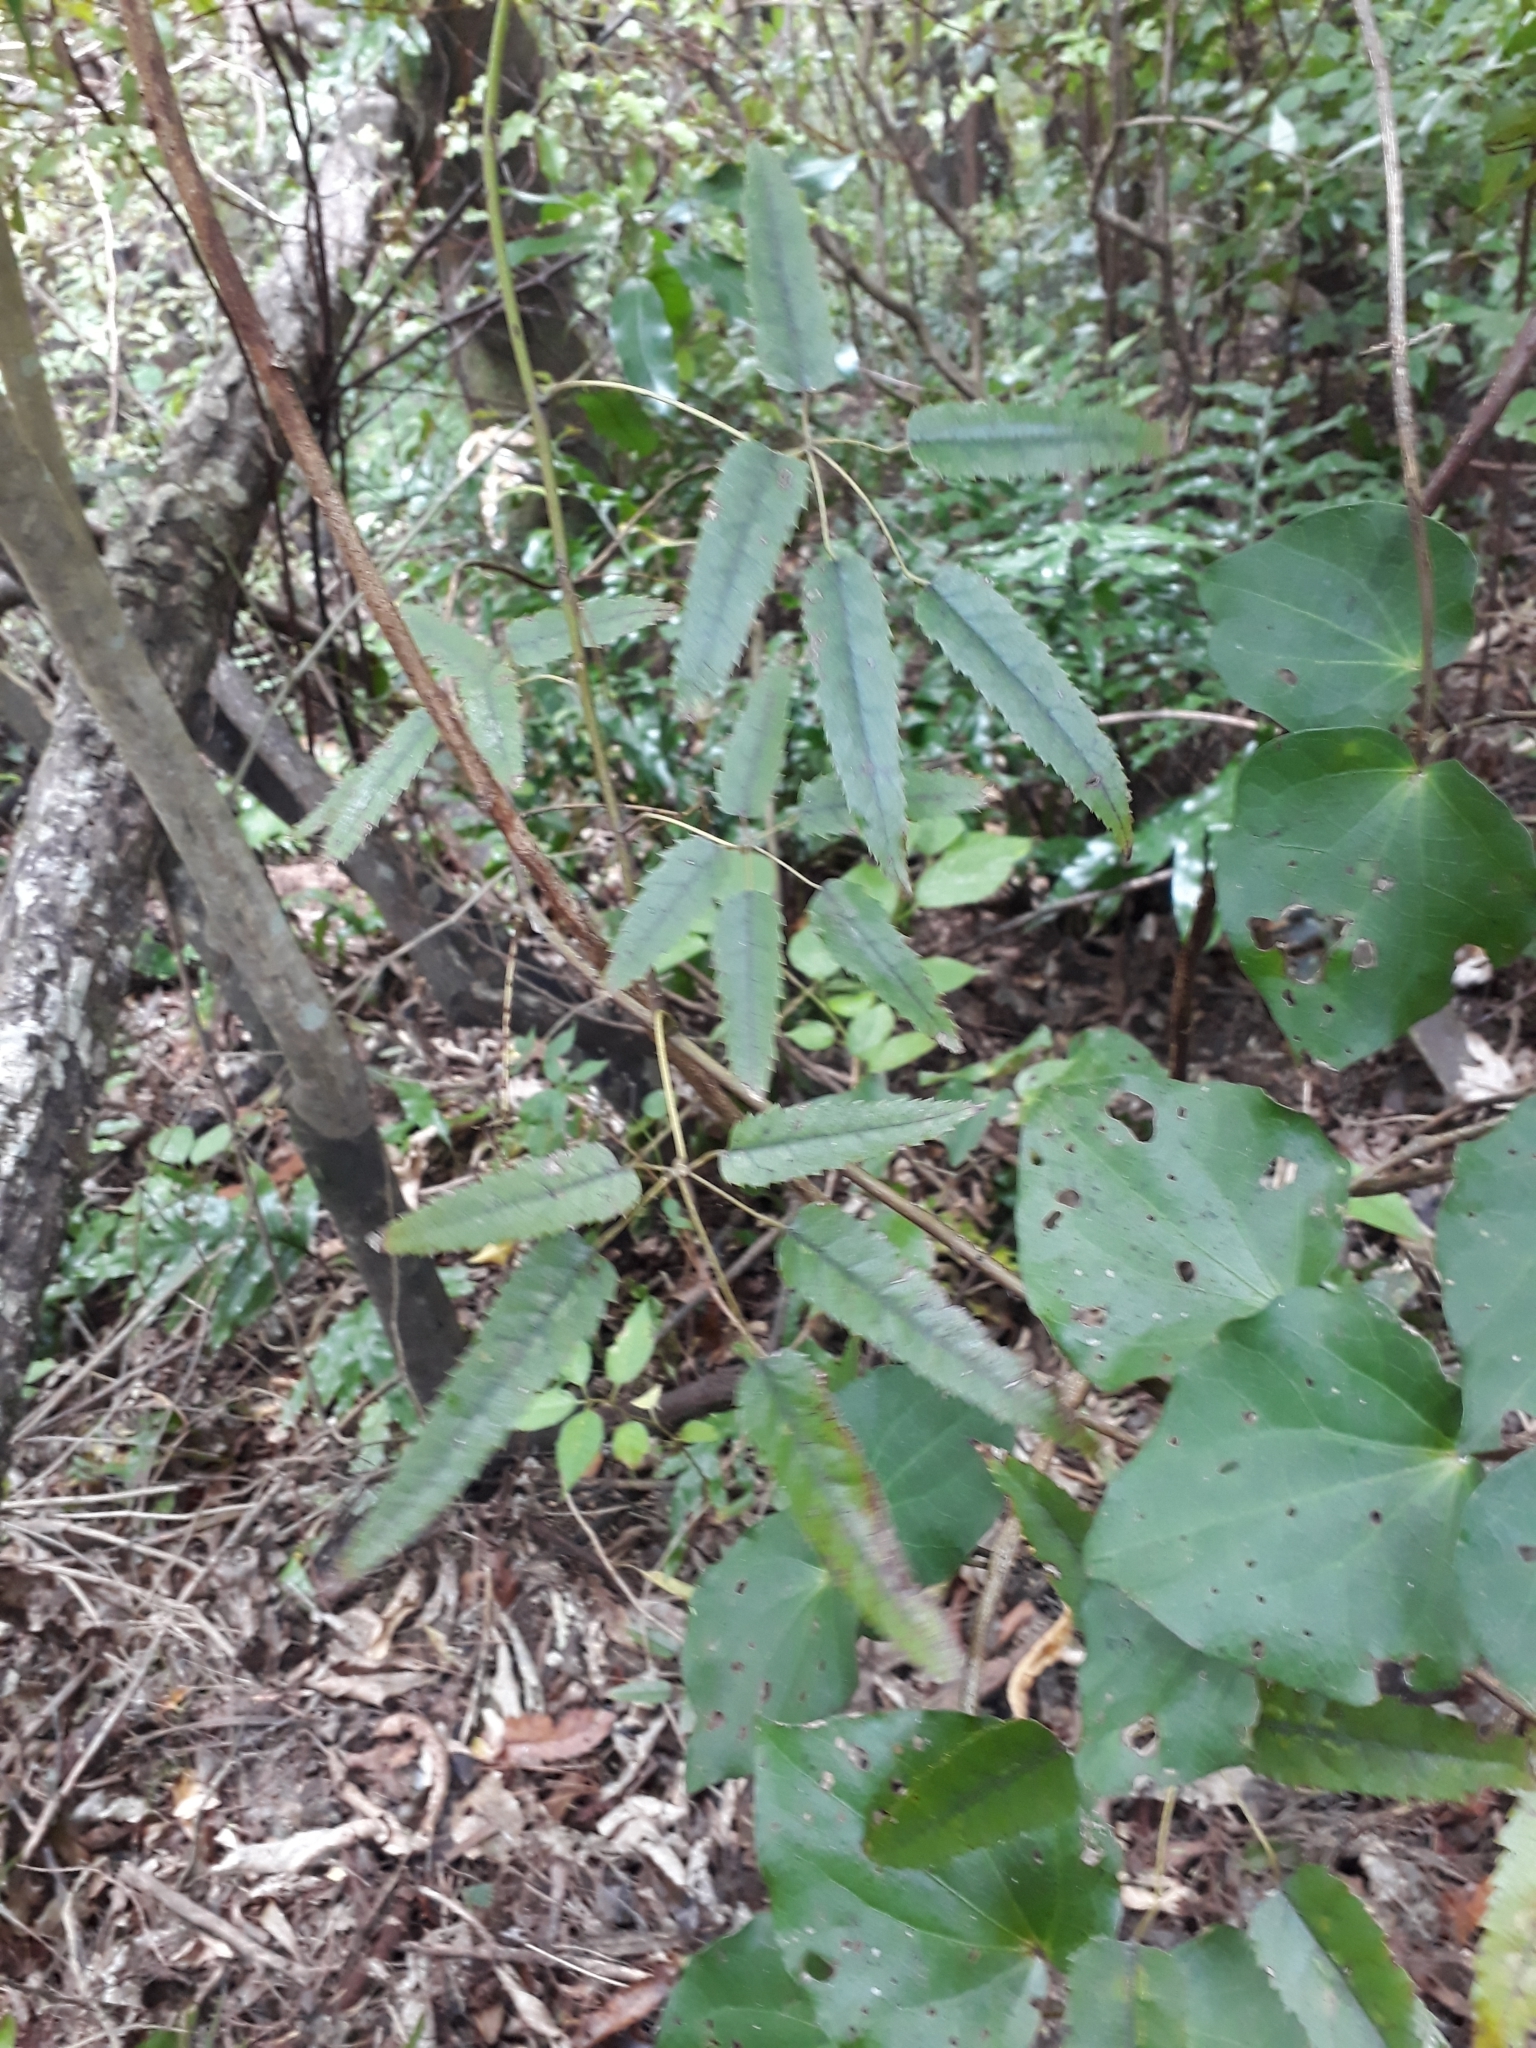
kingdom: Plantae
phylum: Tracheophyta
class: Magnoliopsida
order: Rosales
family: Rosaceae
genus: Rubus
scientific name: Rubus cissoides
